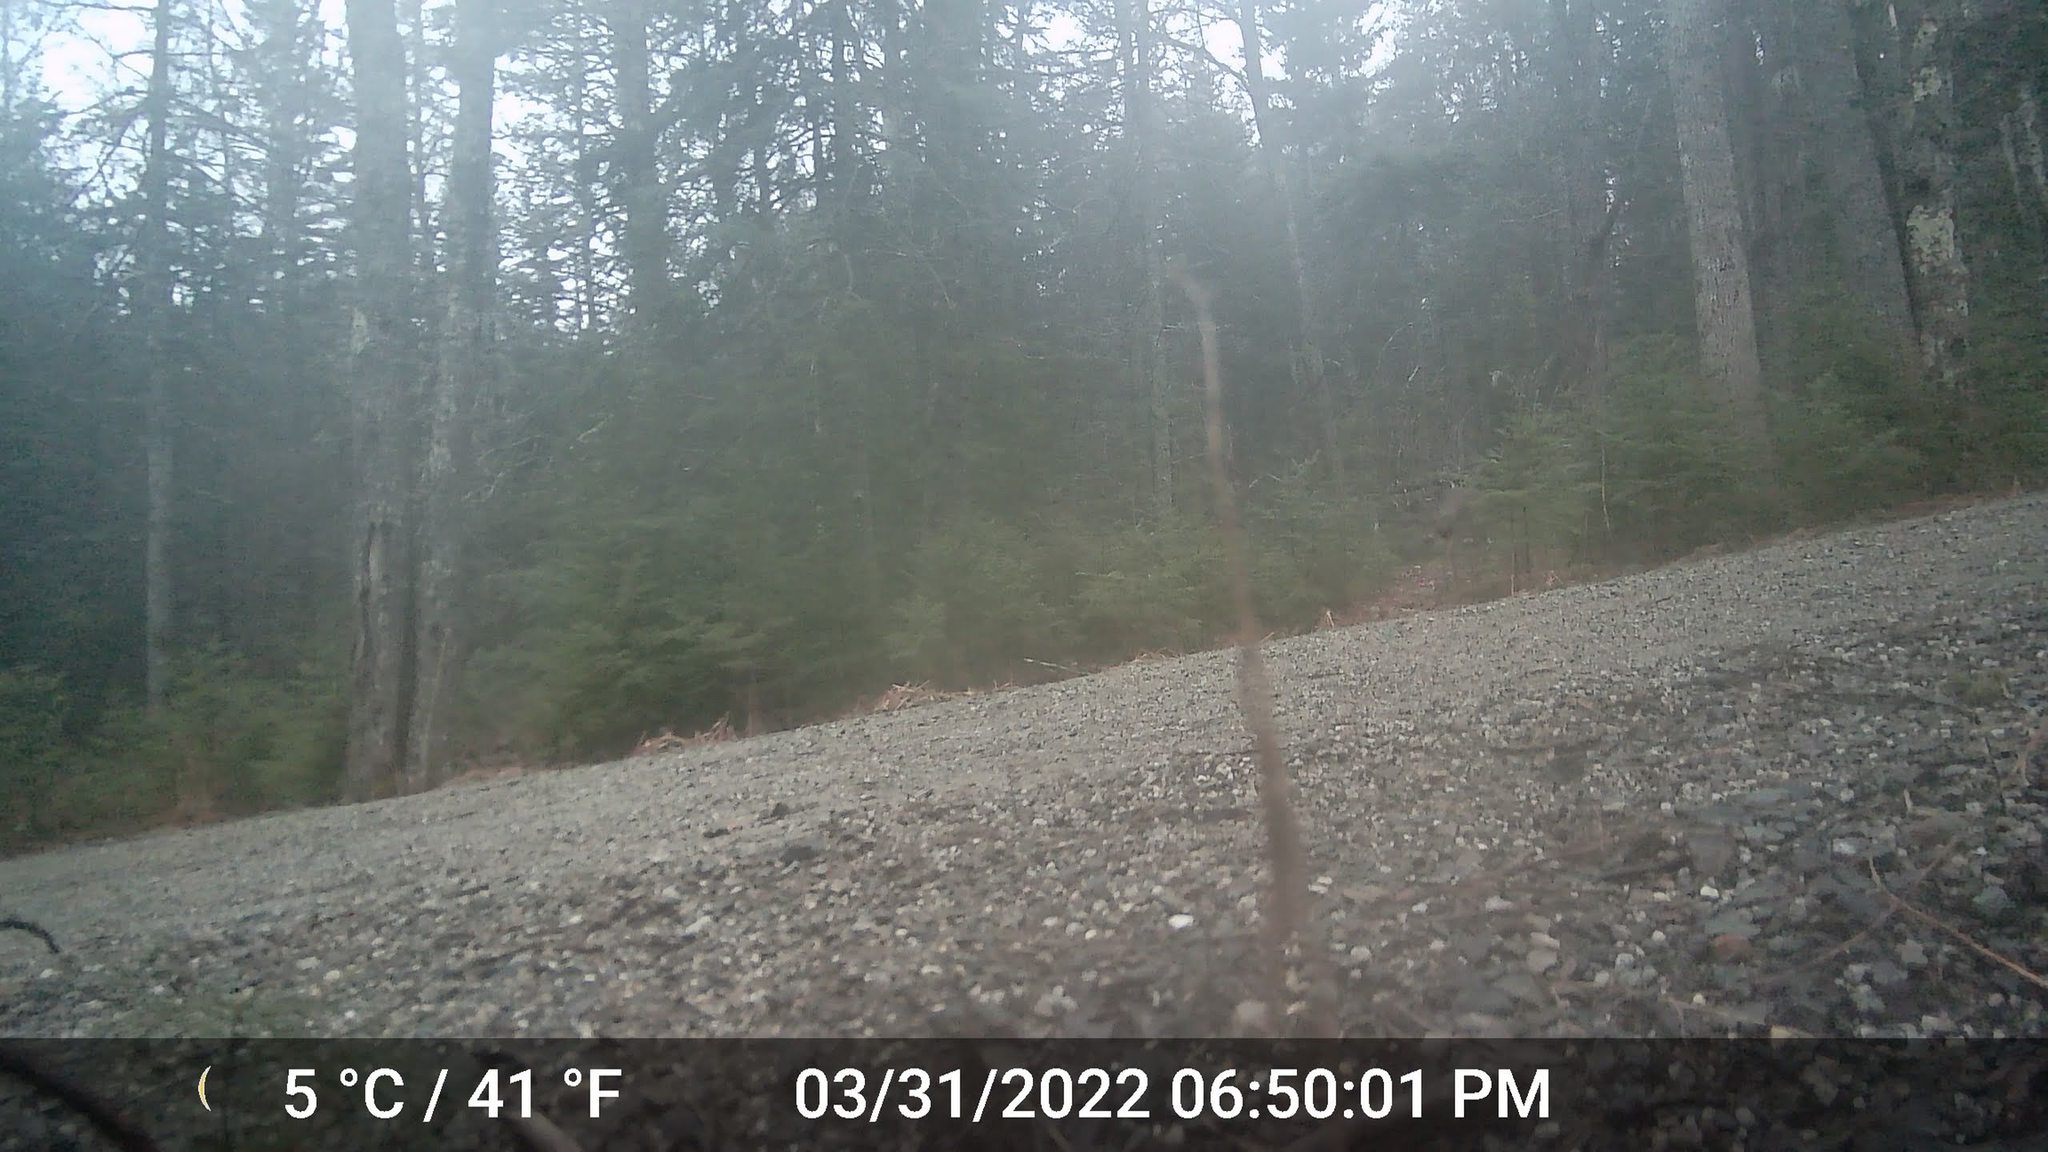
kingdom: Animalia
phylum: Chordata
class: Mammalia
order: Artiodactyla
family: Cervidae
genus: Odocoileus
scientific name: Odocoileus virginianus
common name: White-tailed deer
